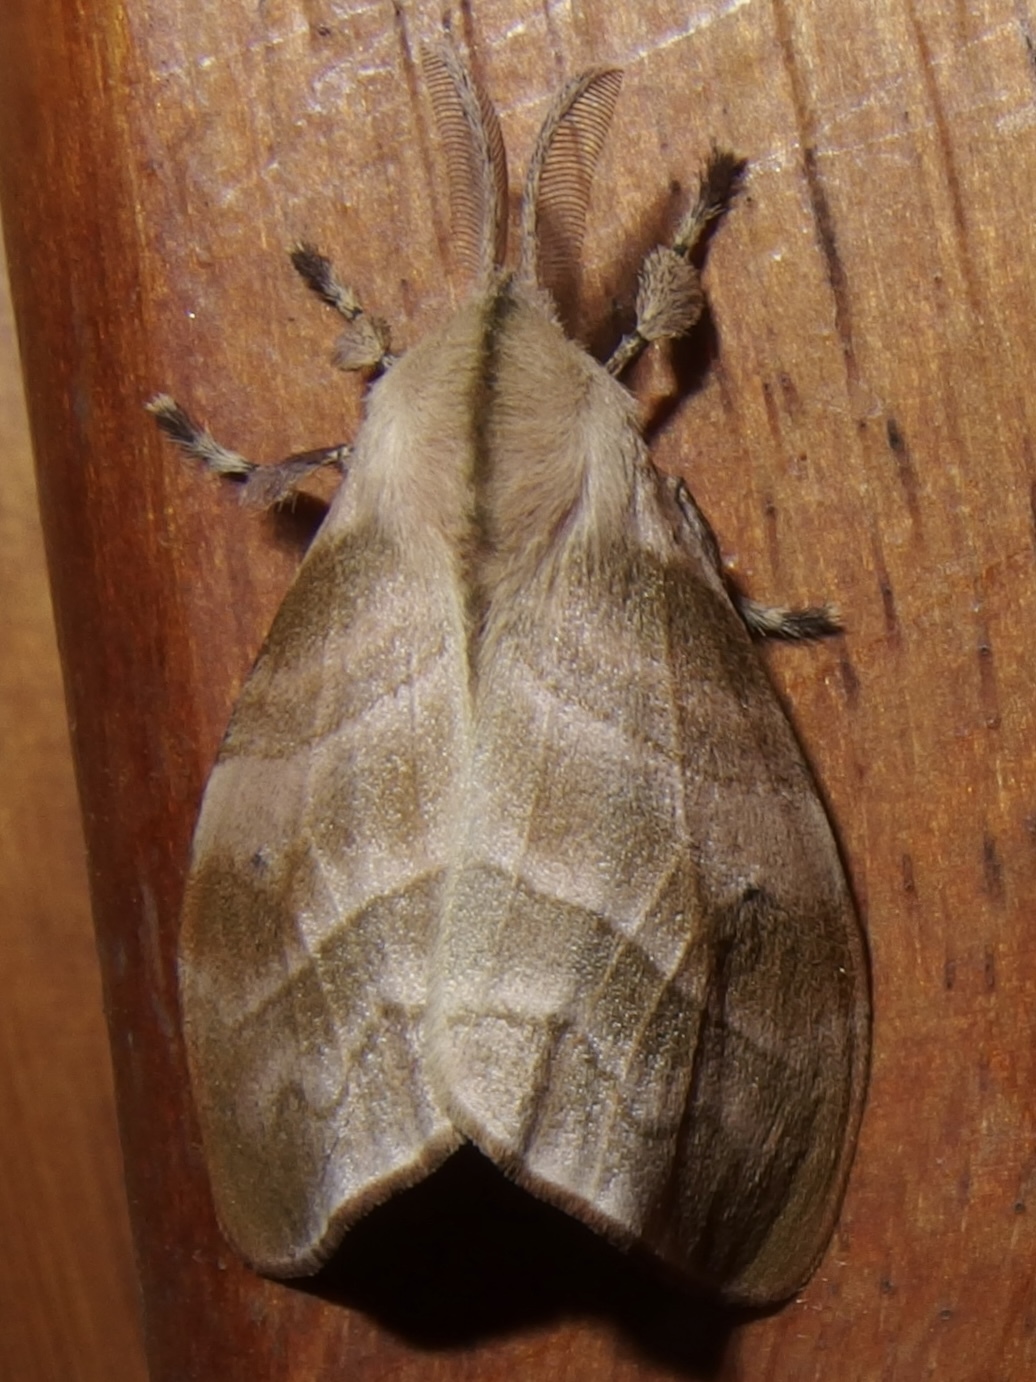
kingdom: Animalia
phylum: Arthropoda
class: Insecta
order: Lepidoptera
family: Erebidae
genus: Sarsina
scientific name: Sarsina purpurascens
